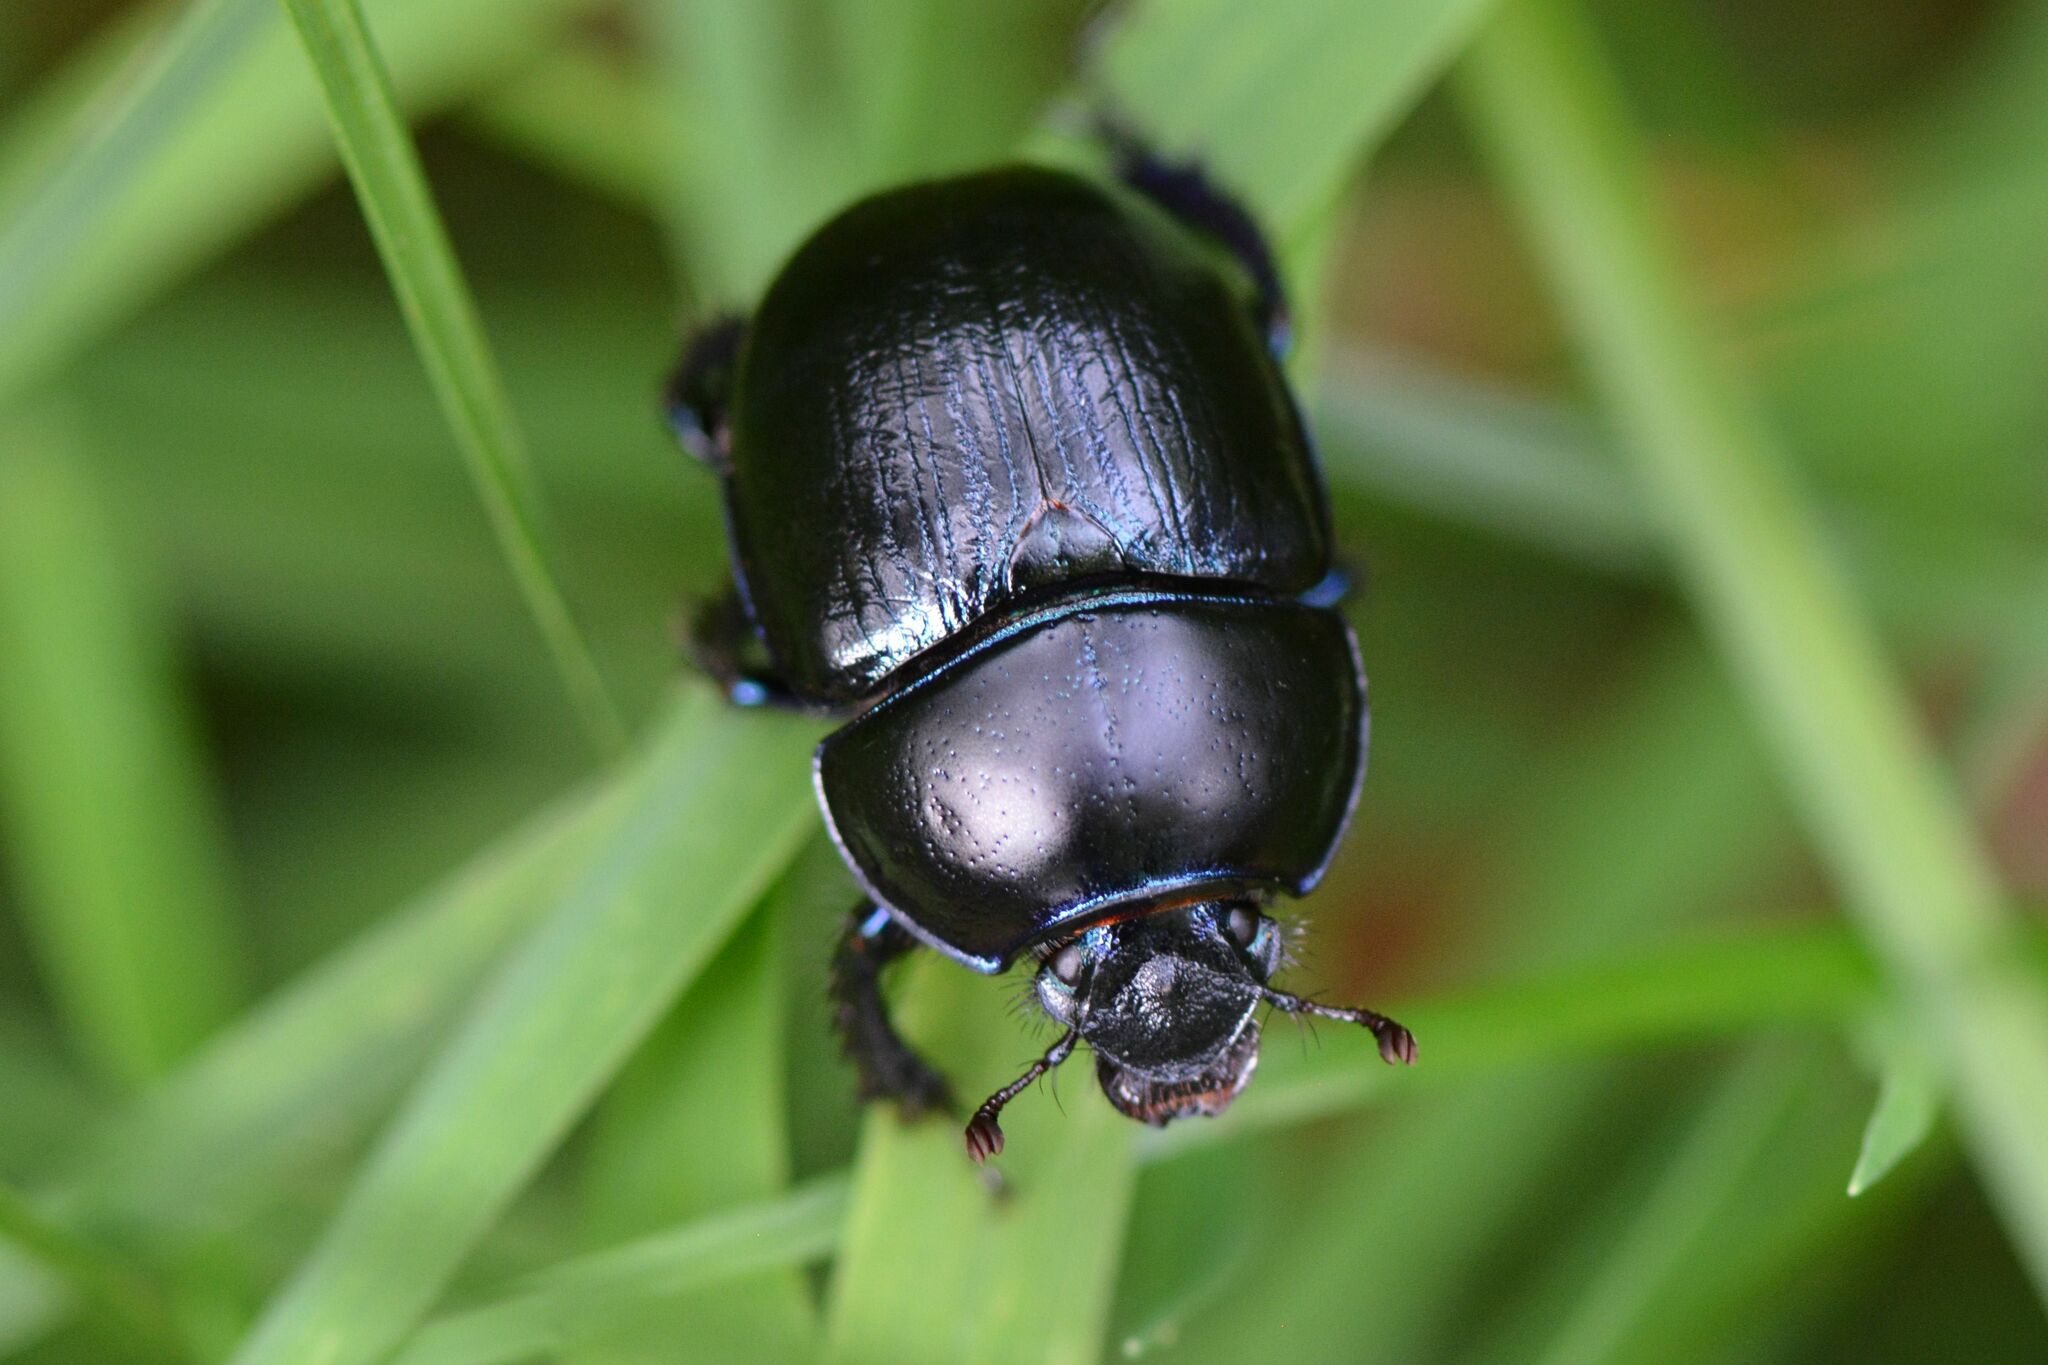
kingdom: Animalia
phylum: Arthropoda
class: Insecta
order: Coleoptera
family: Geotrupidae
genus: Anoplotrupes
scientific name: Anoplotrupes stercorosus
